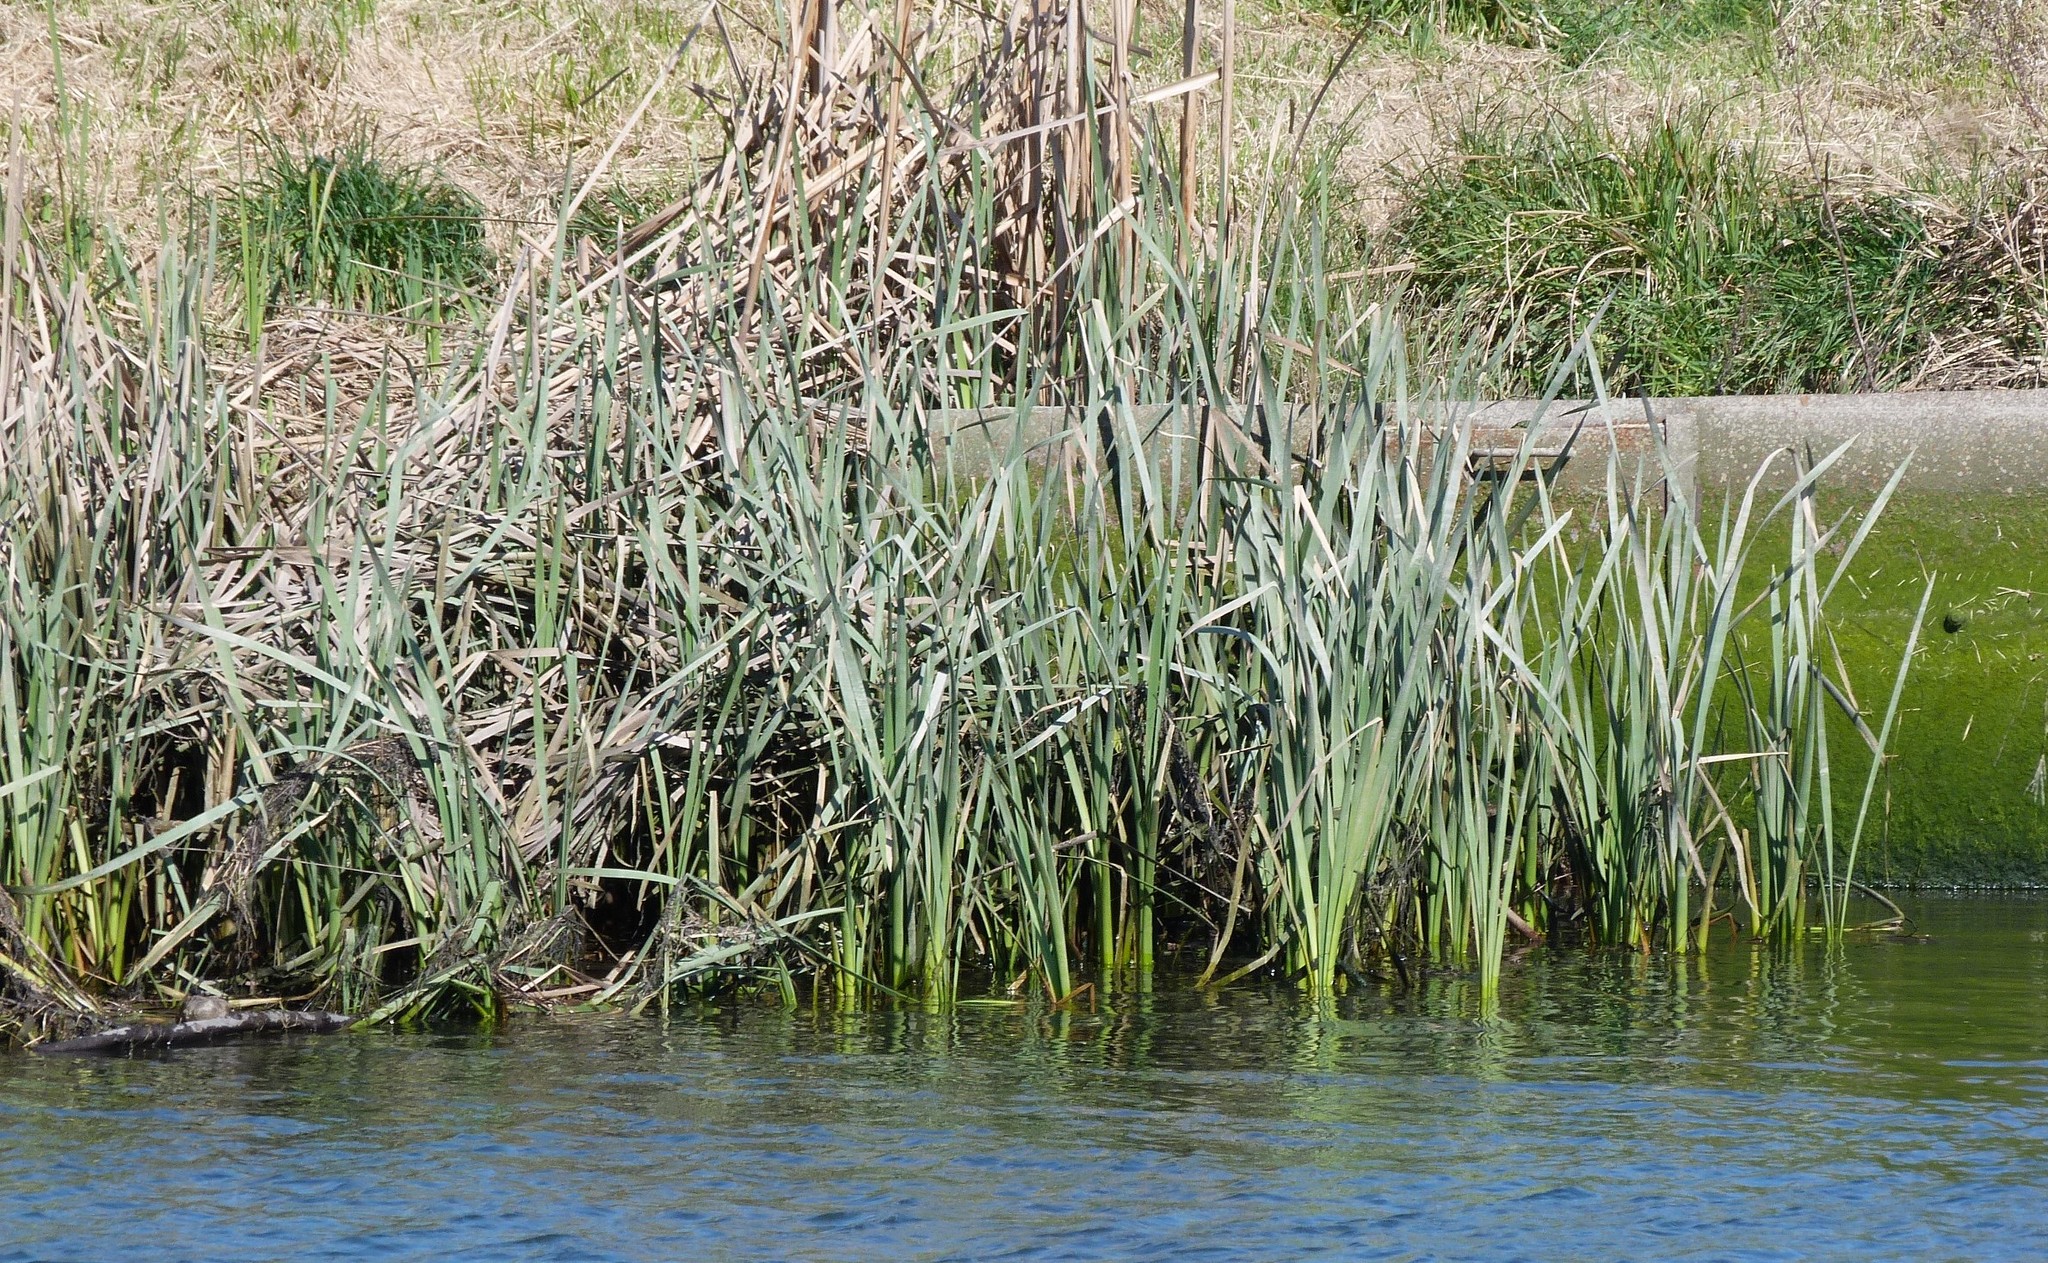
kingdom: Plantae
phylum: Tracheophyta
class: Liliopsida
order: Asparagales
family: Iridaceae
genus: Iris
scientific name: Iris pseudacorus
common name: Yellow flag
